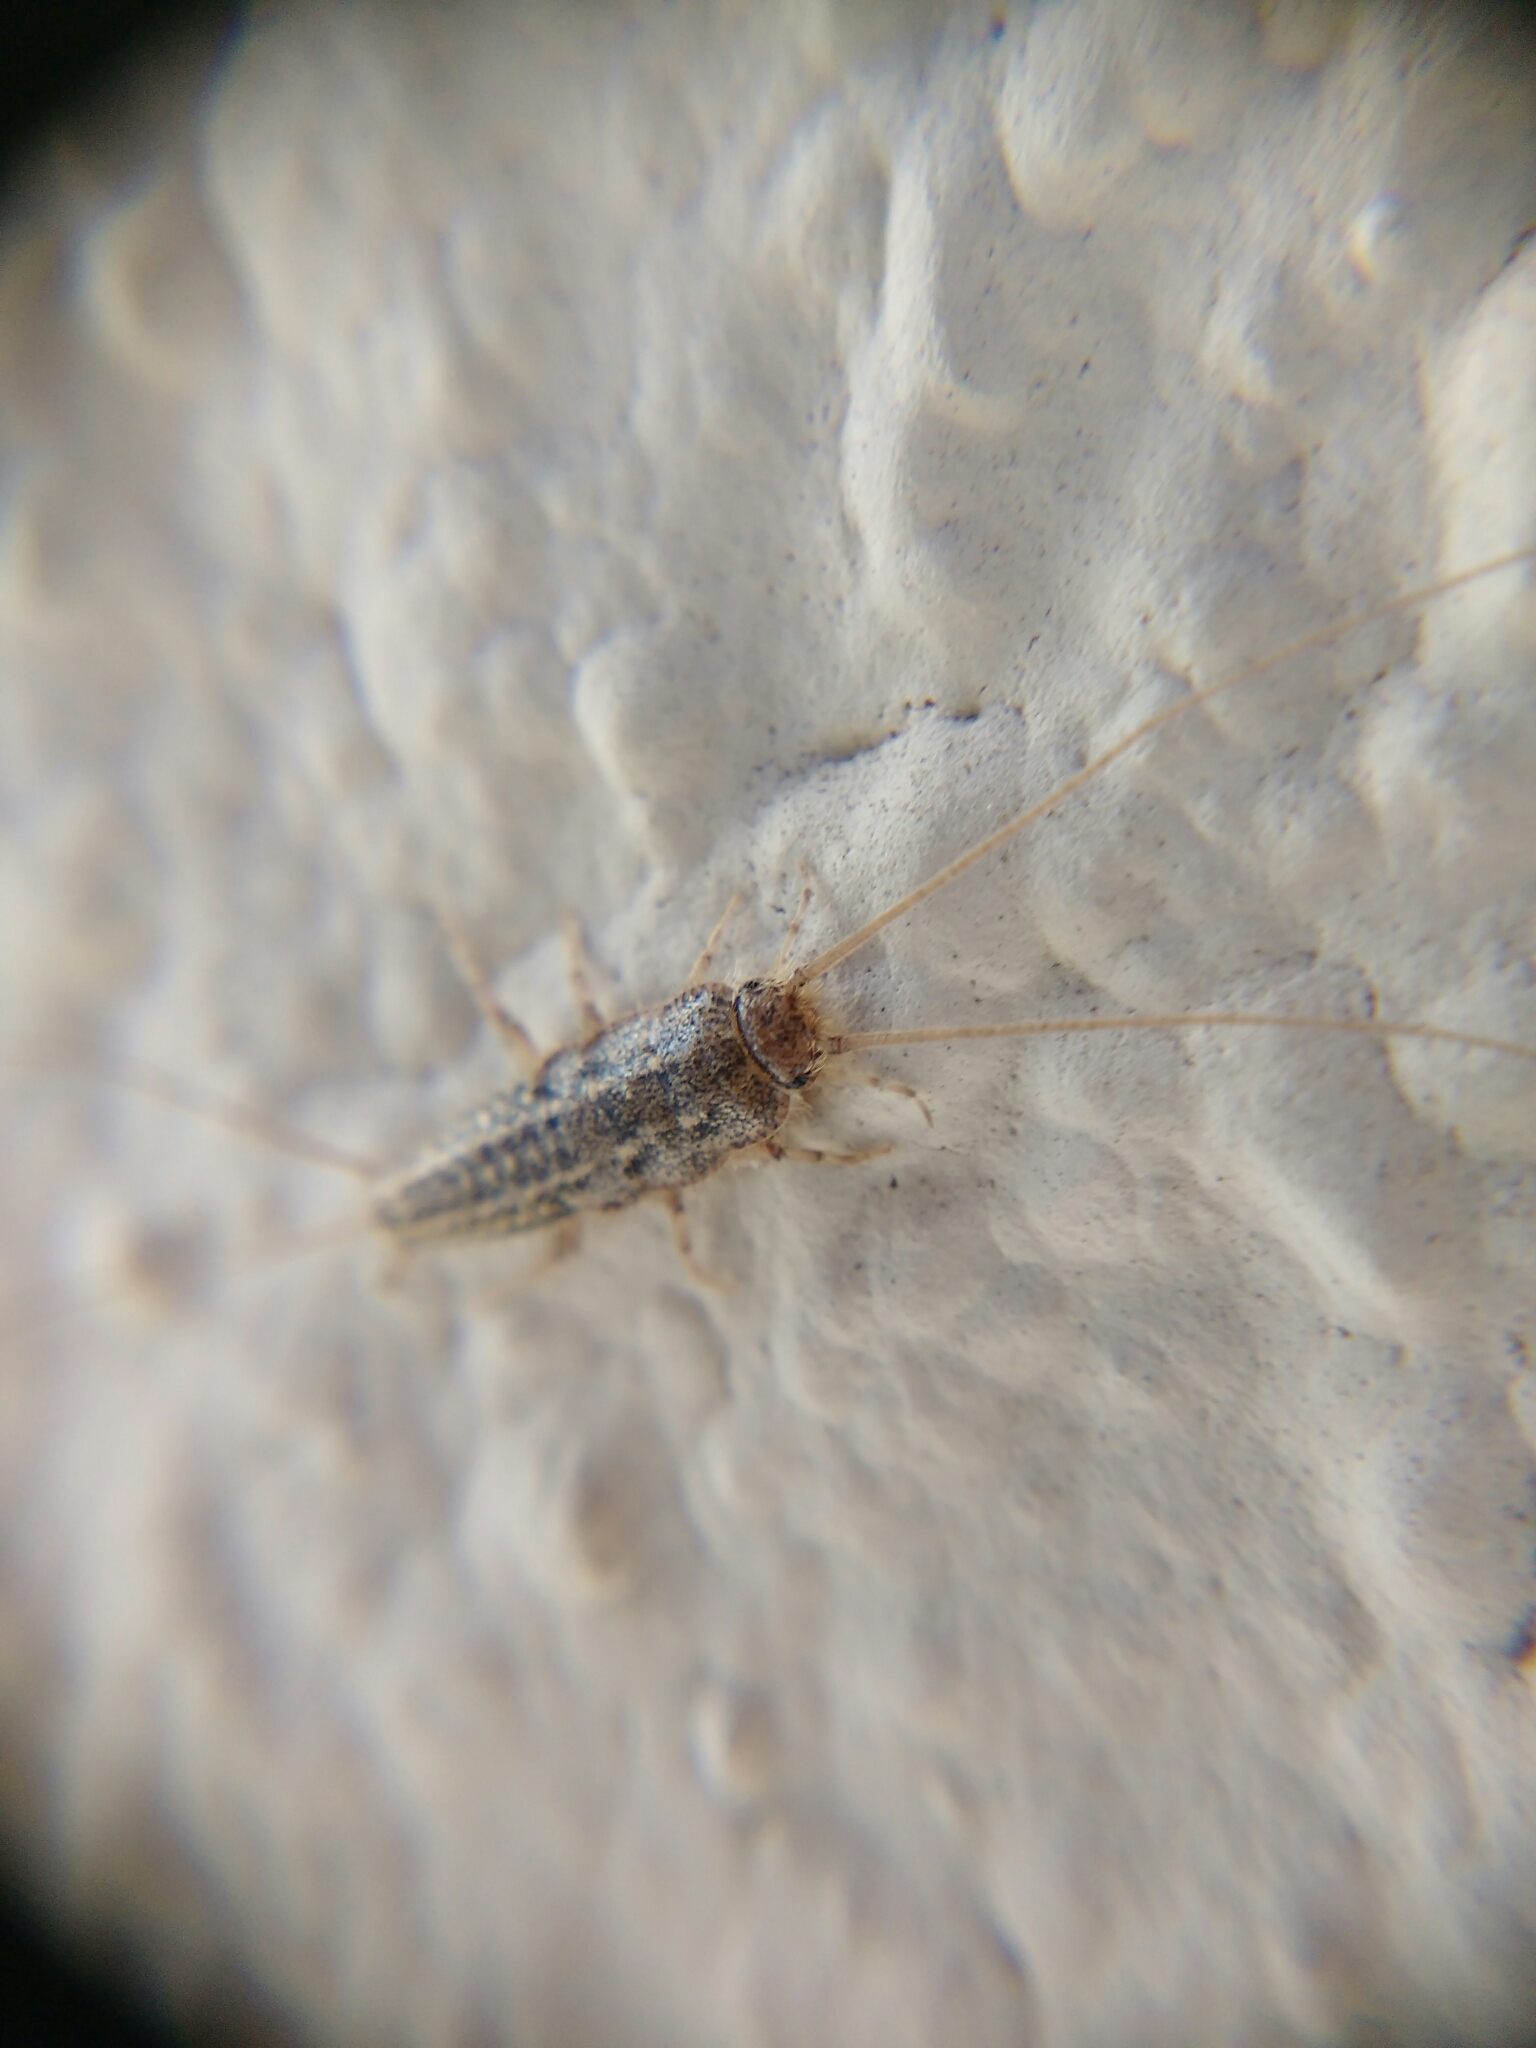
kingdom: Animalia
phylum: Arthropoda
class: Insecta
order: Zygentoma
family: Lepismatidae
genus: Ctenolepisma
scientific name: Ctenolepisma lineata
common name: Four-lined silverfish
